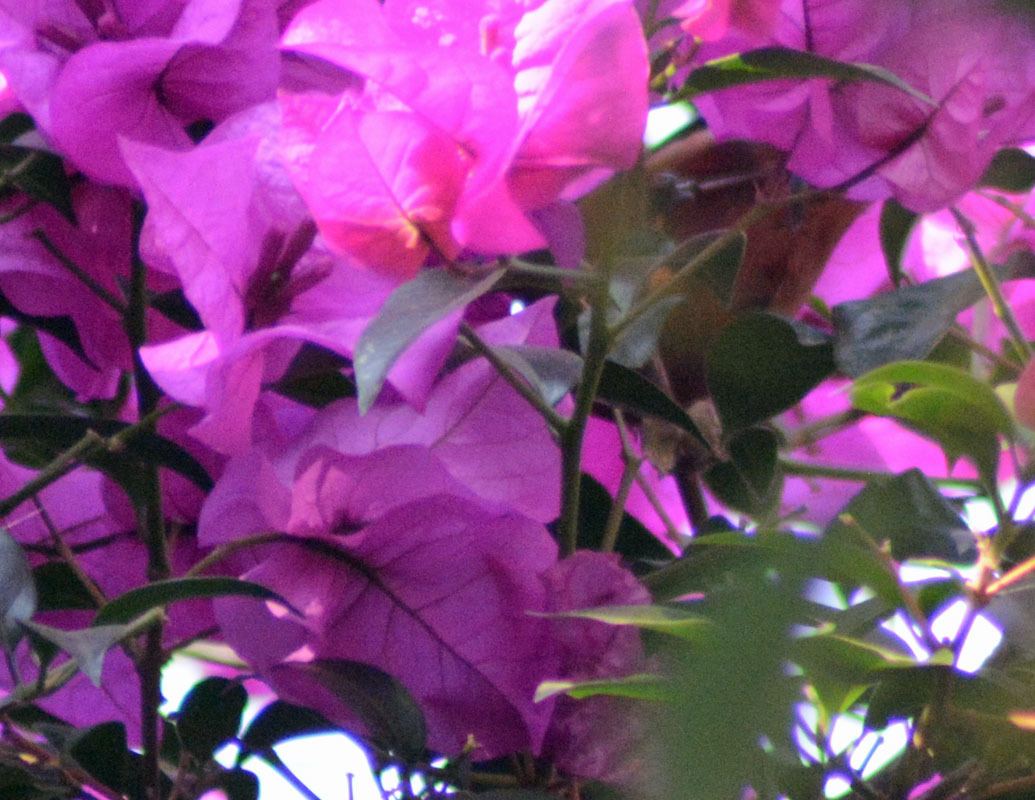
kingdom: Animalia
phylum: Chordata
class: Aves
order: Passeriformes
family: Thraupidae
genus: Diglossa
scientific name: Diglossa baritula
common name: Cinnamon-bellied flowerpiercer
